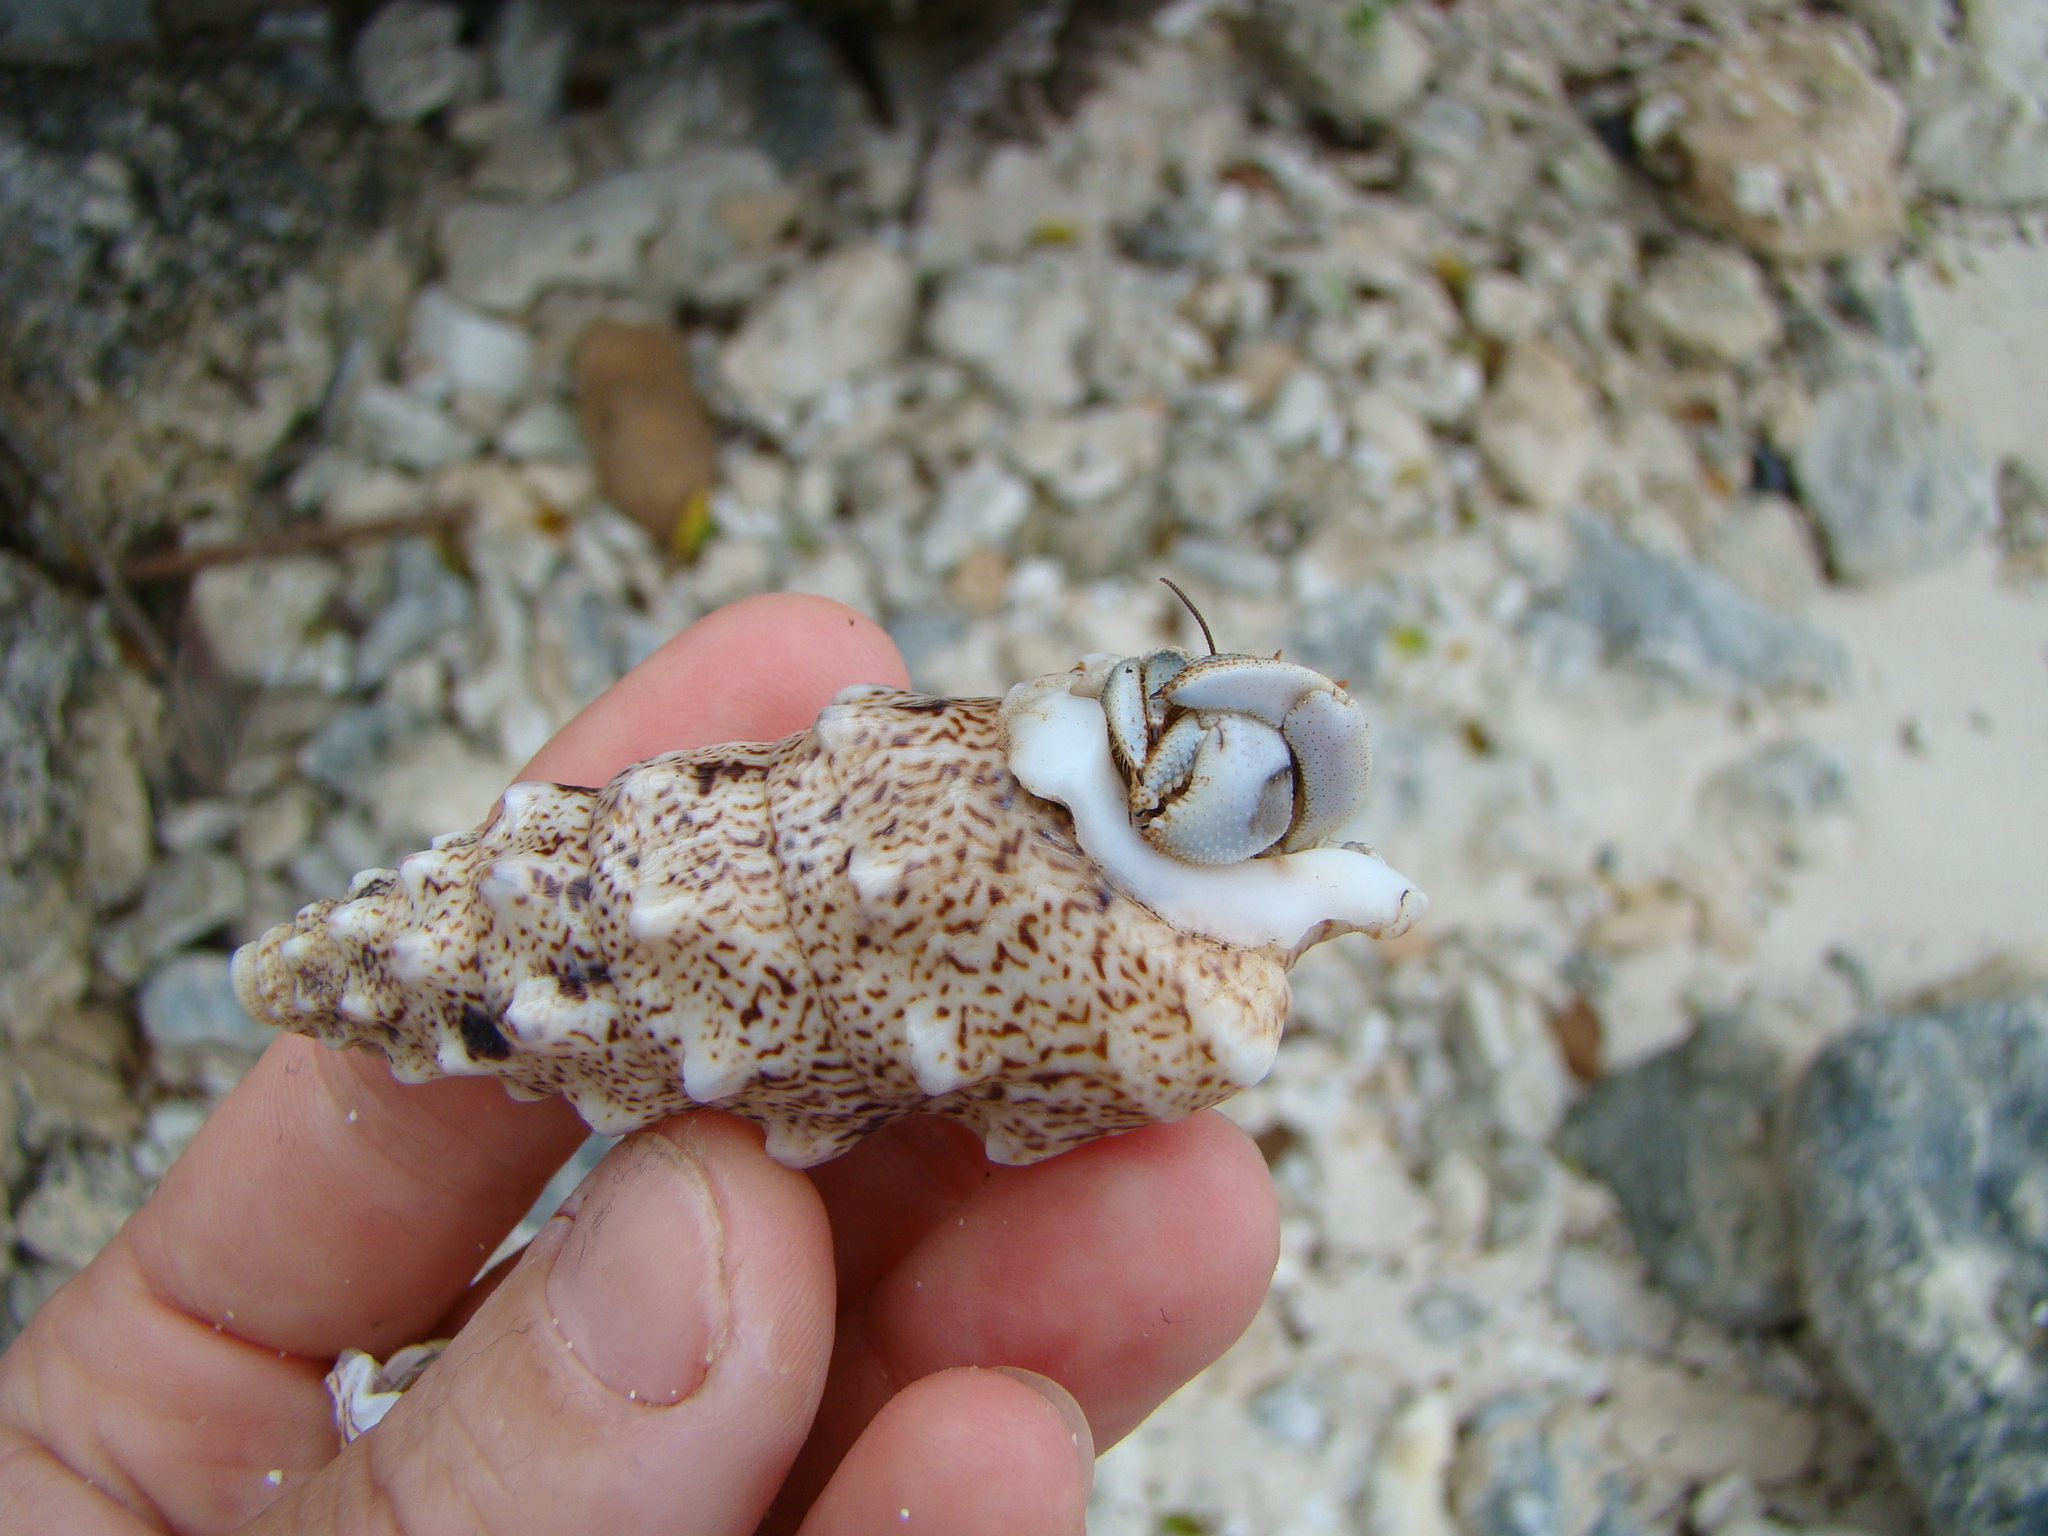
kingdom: Animalia
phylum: Arthropoda
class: Malacostraca
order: Decapoda
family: Coenobitidae
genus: Coenobita
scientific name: Coenobita rugosus
